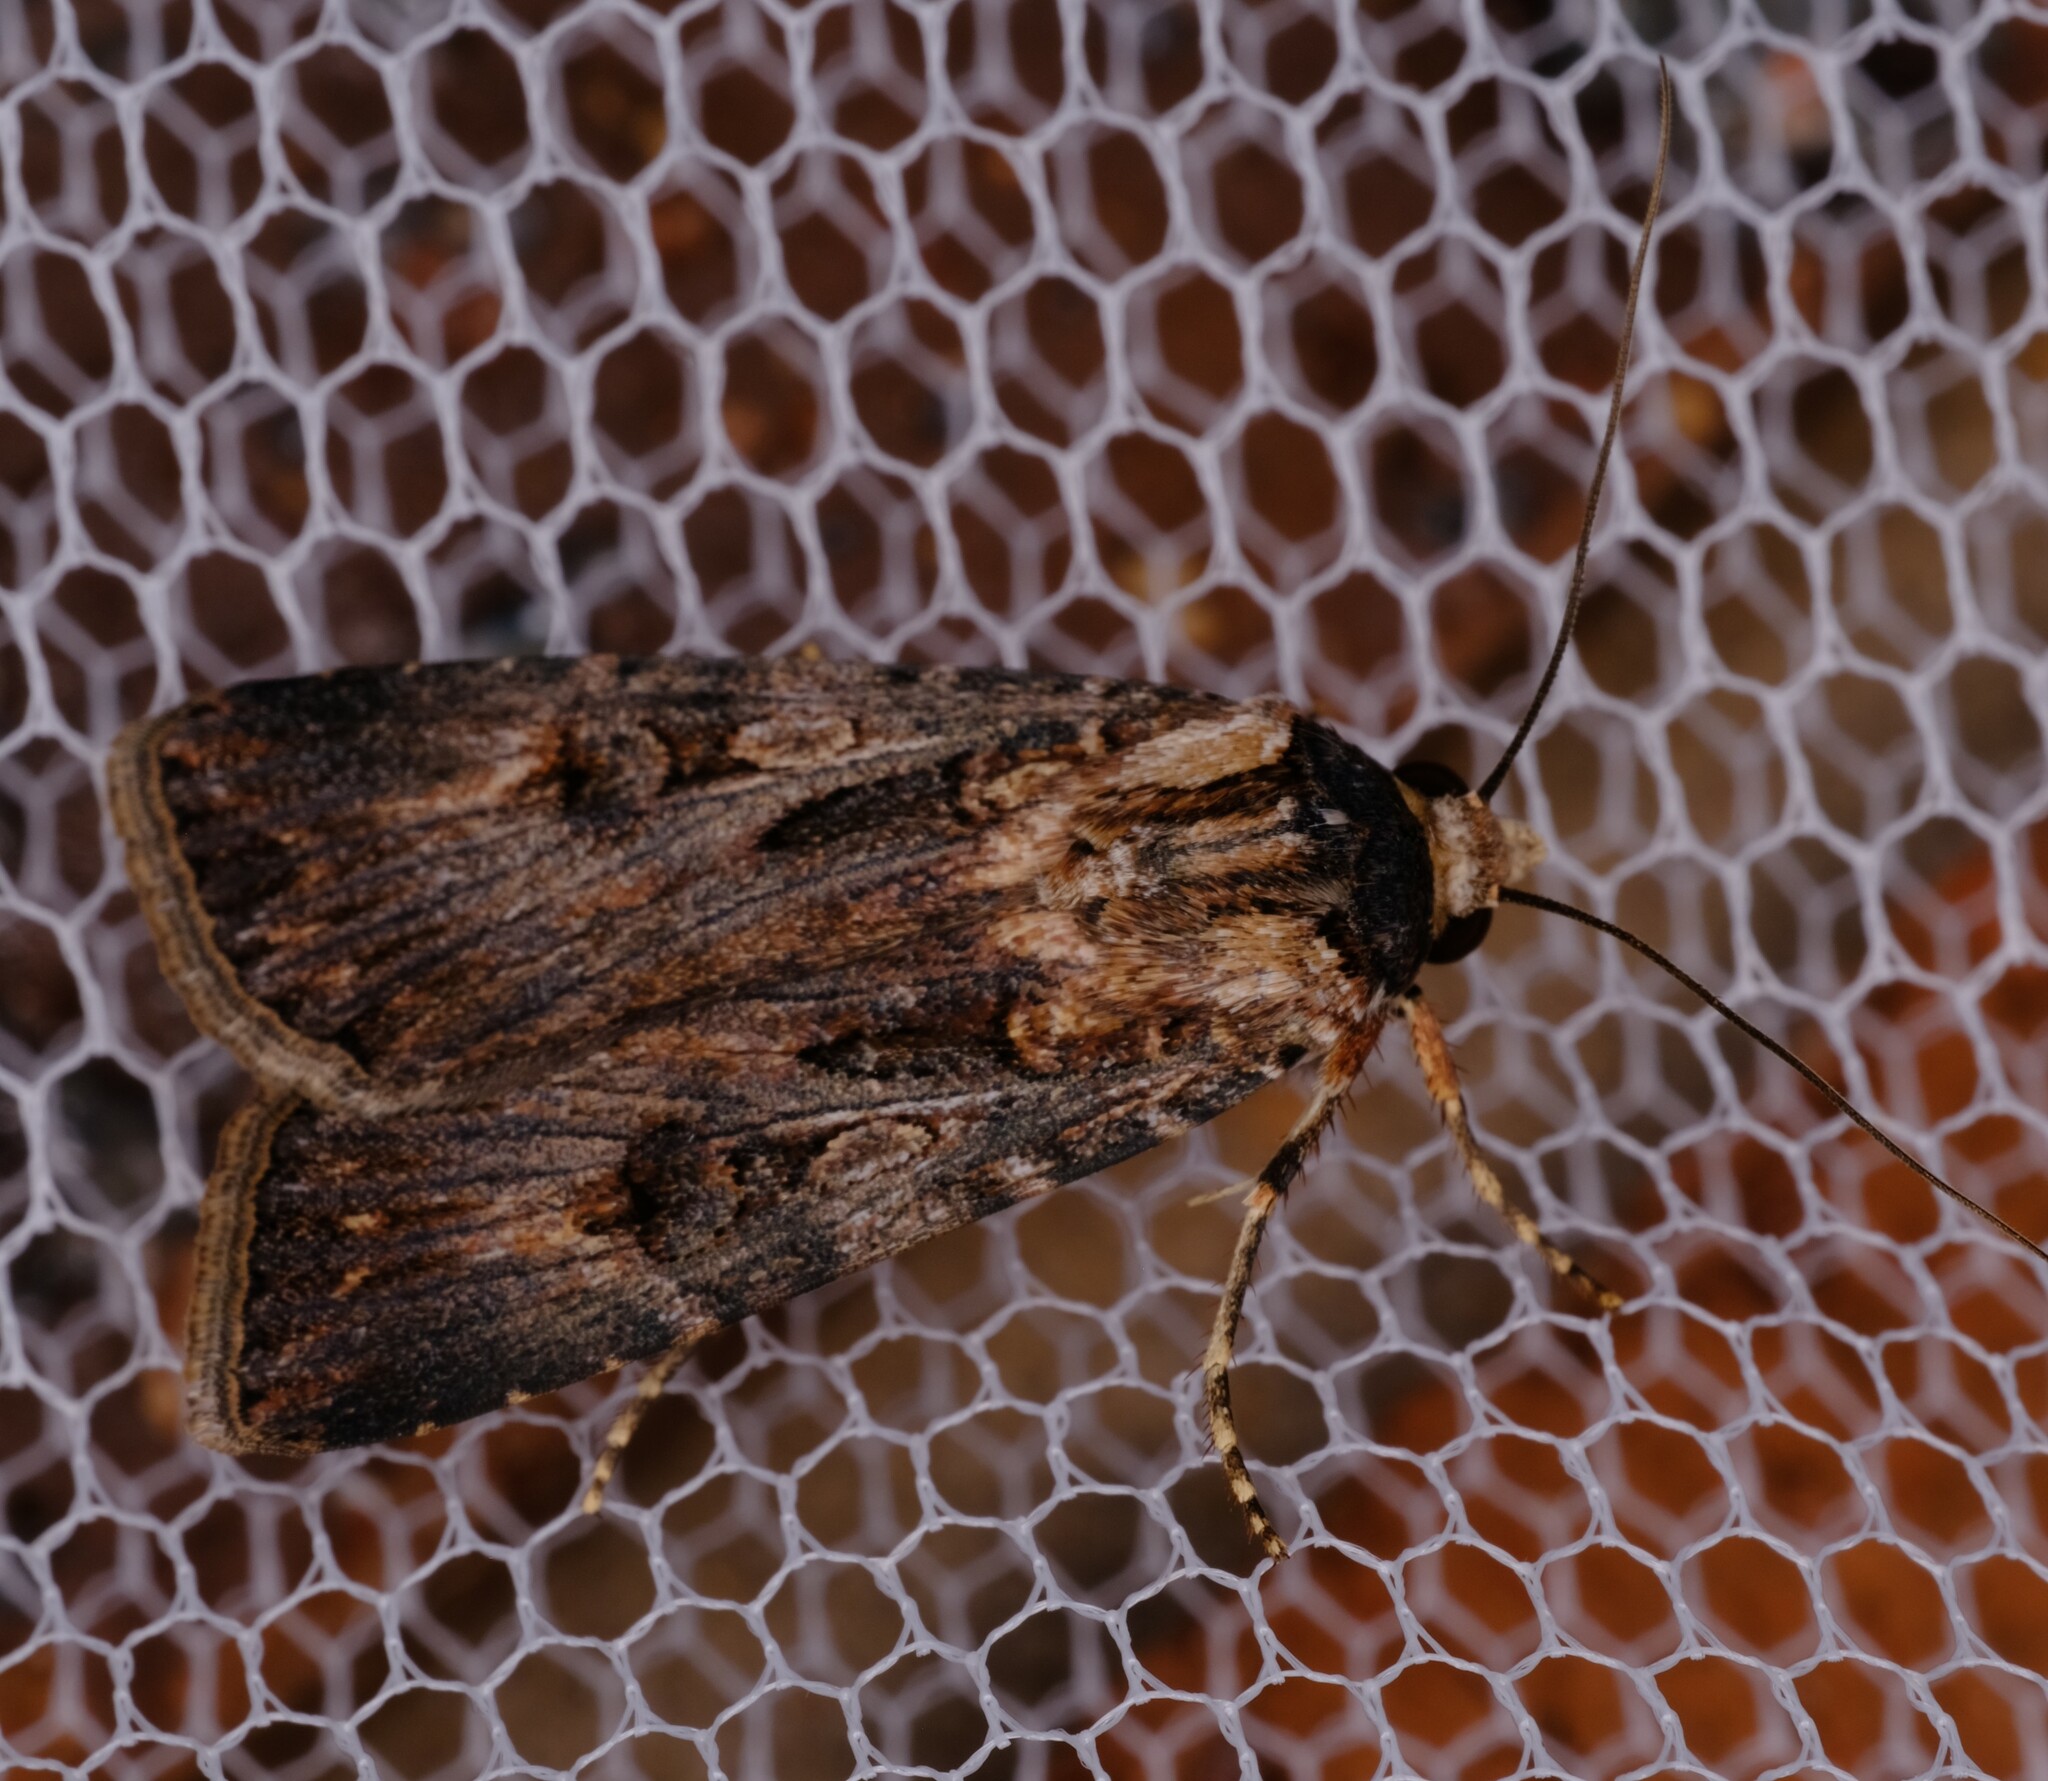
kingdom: Animalia
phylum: Arthropoda
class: Insecta
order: Lepidoptera
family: Noctuidae
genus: Agrotis
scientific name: Agrotis munda
